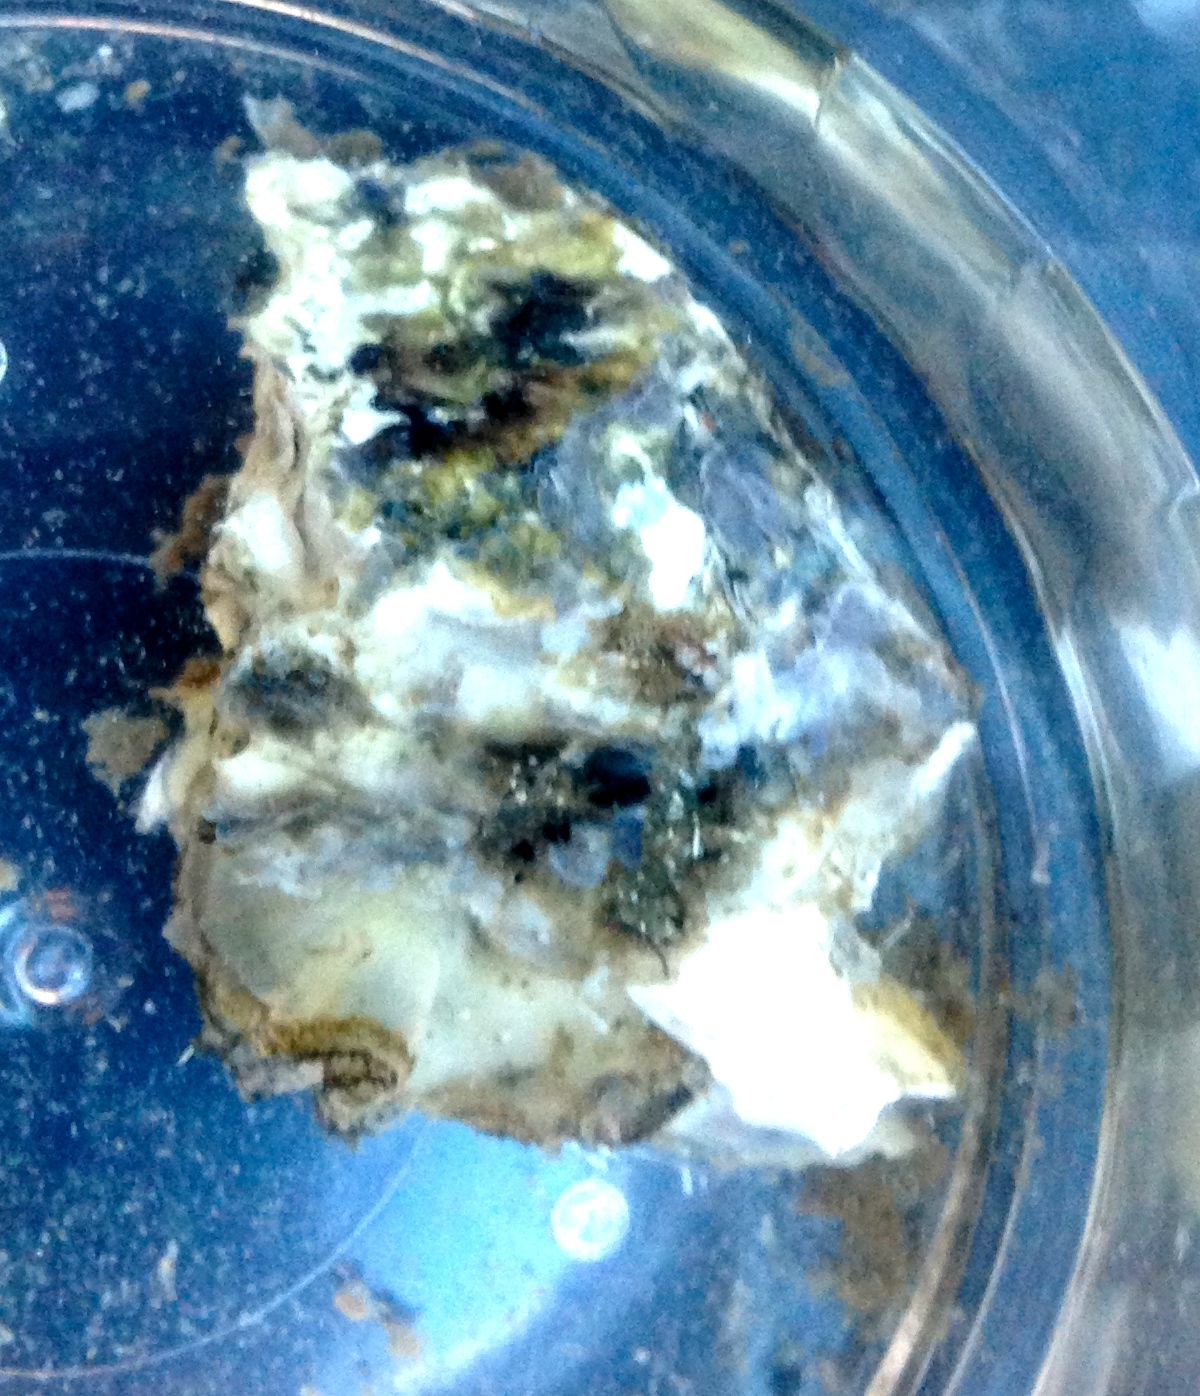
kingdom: Animalia
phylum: Mollusca
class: Bivalvia
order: Ostreida
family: Ostreidae
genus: Crassostrea
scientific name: Crassostrea virginica
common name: American oyster
